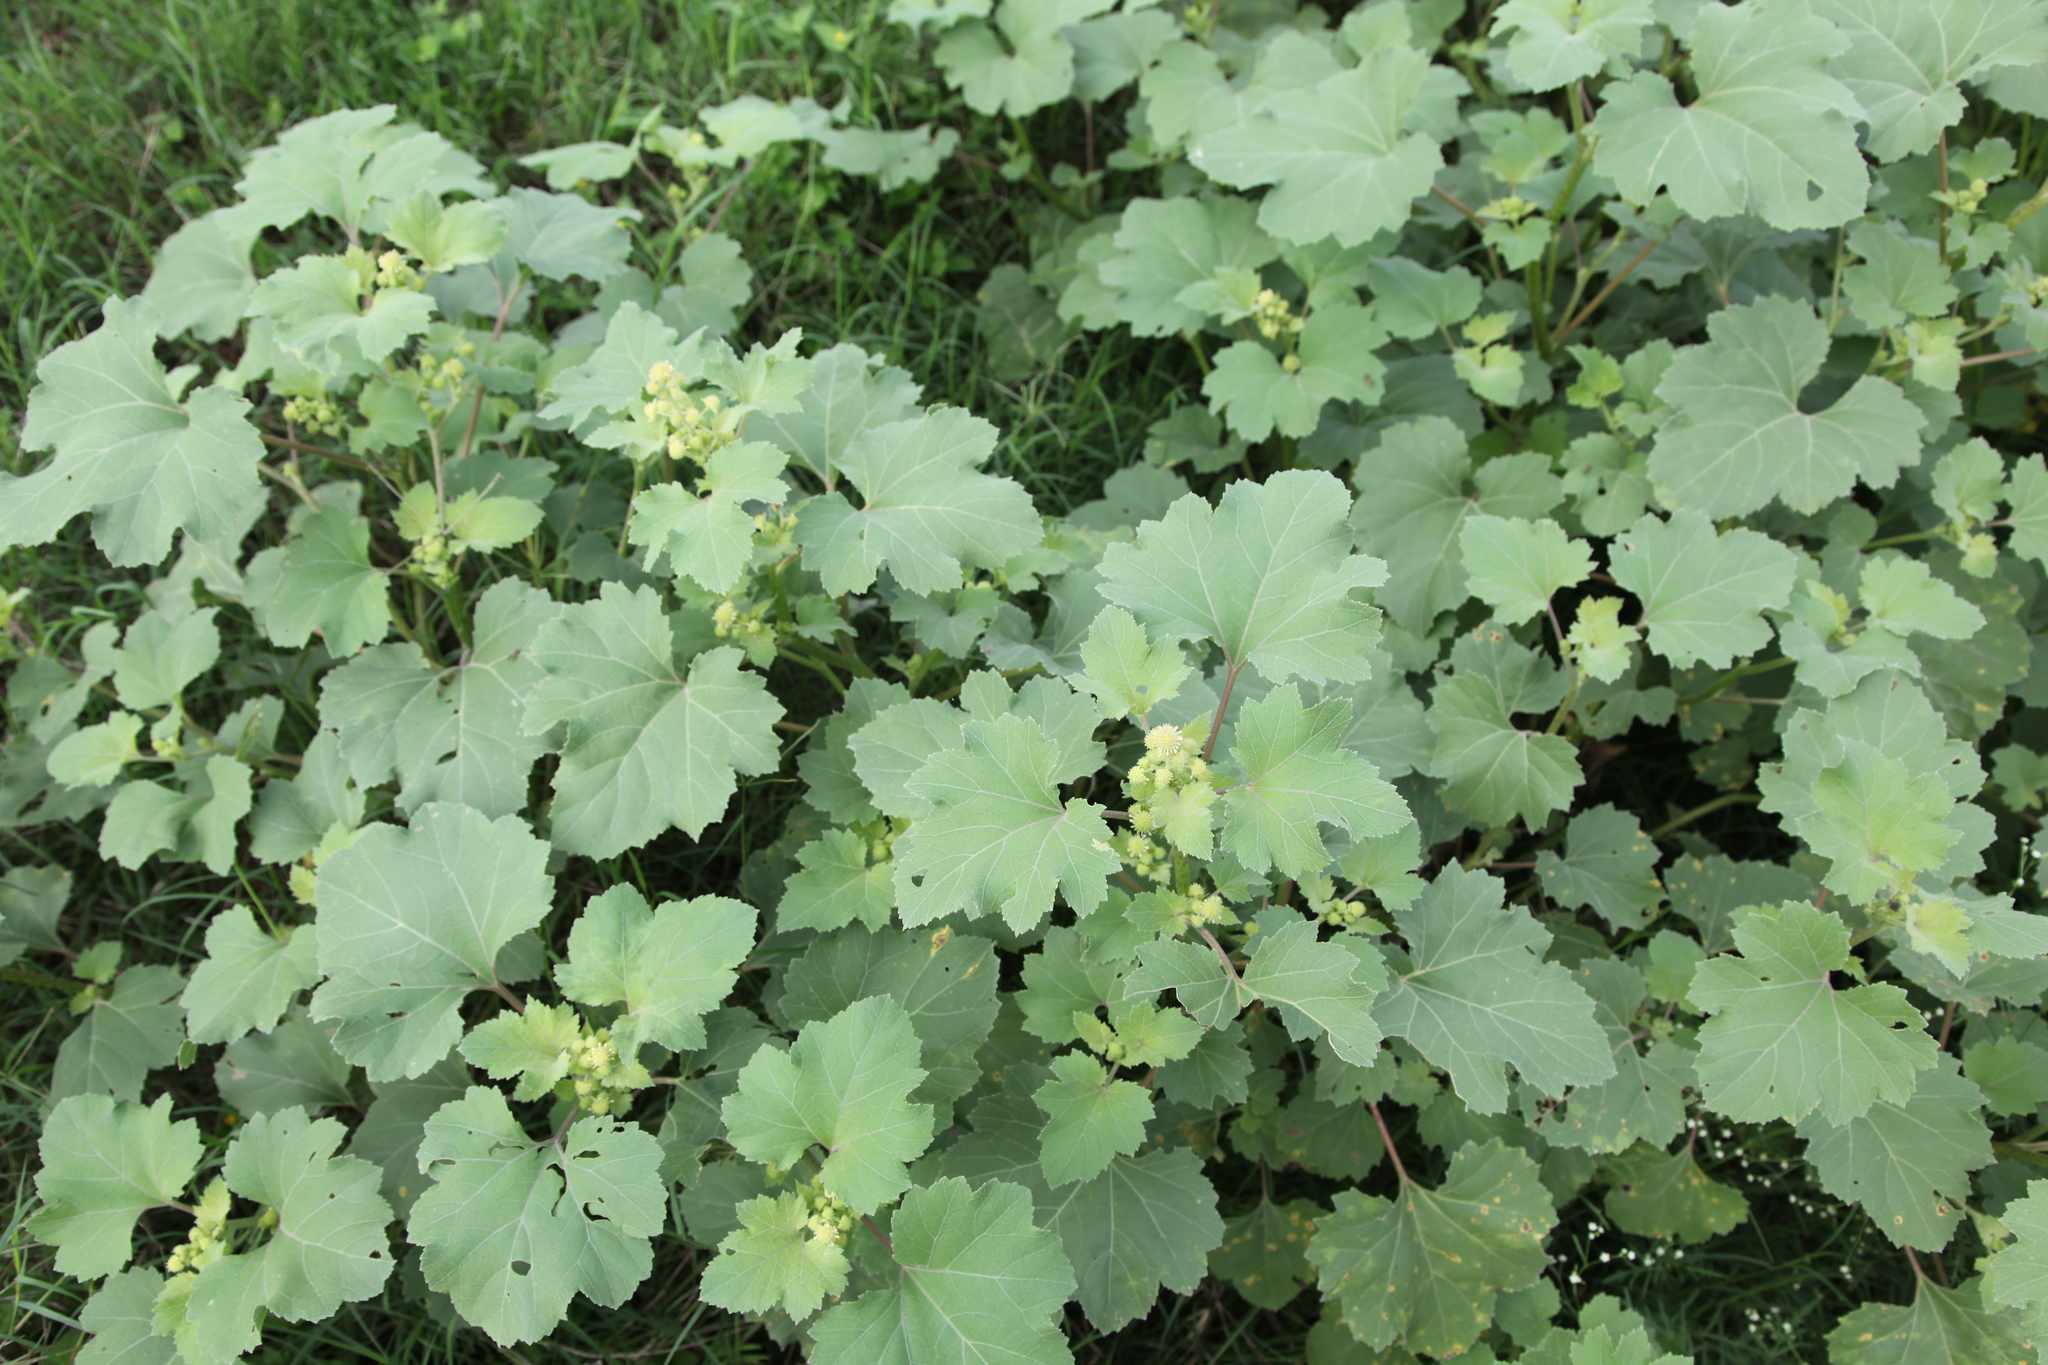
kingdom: Plantae
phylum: Tracheophyta
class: Magnoliopsida
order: Asterales
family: Asteraceae
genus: Xanthium
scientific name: Xanthium strumarium
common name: Rough cocklebur
